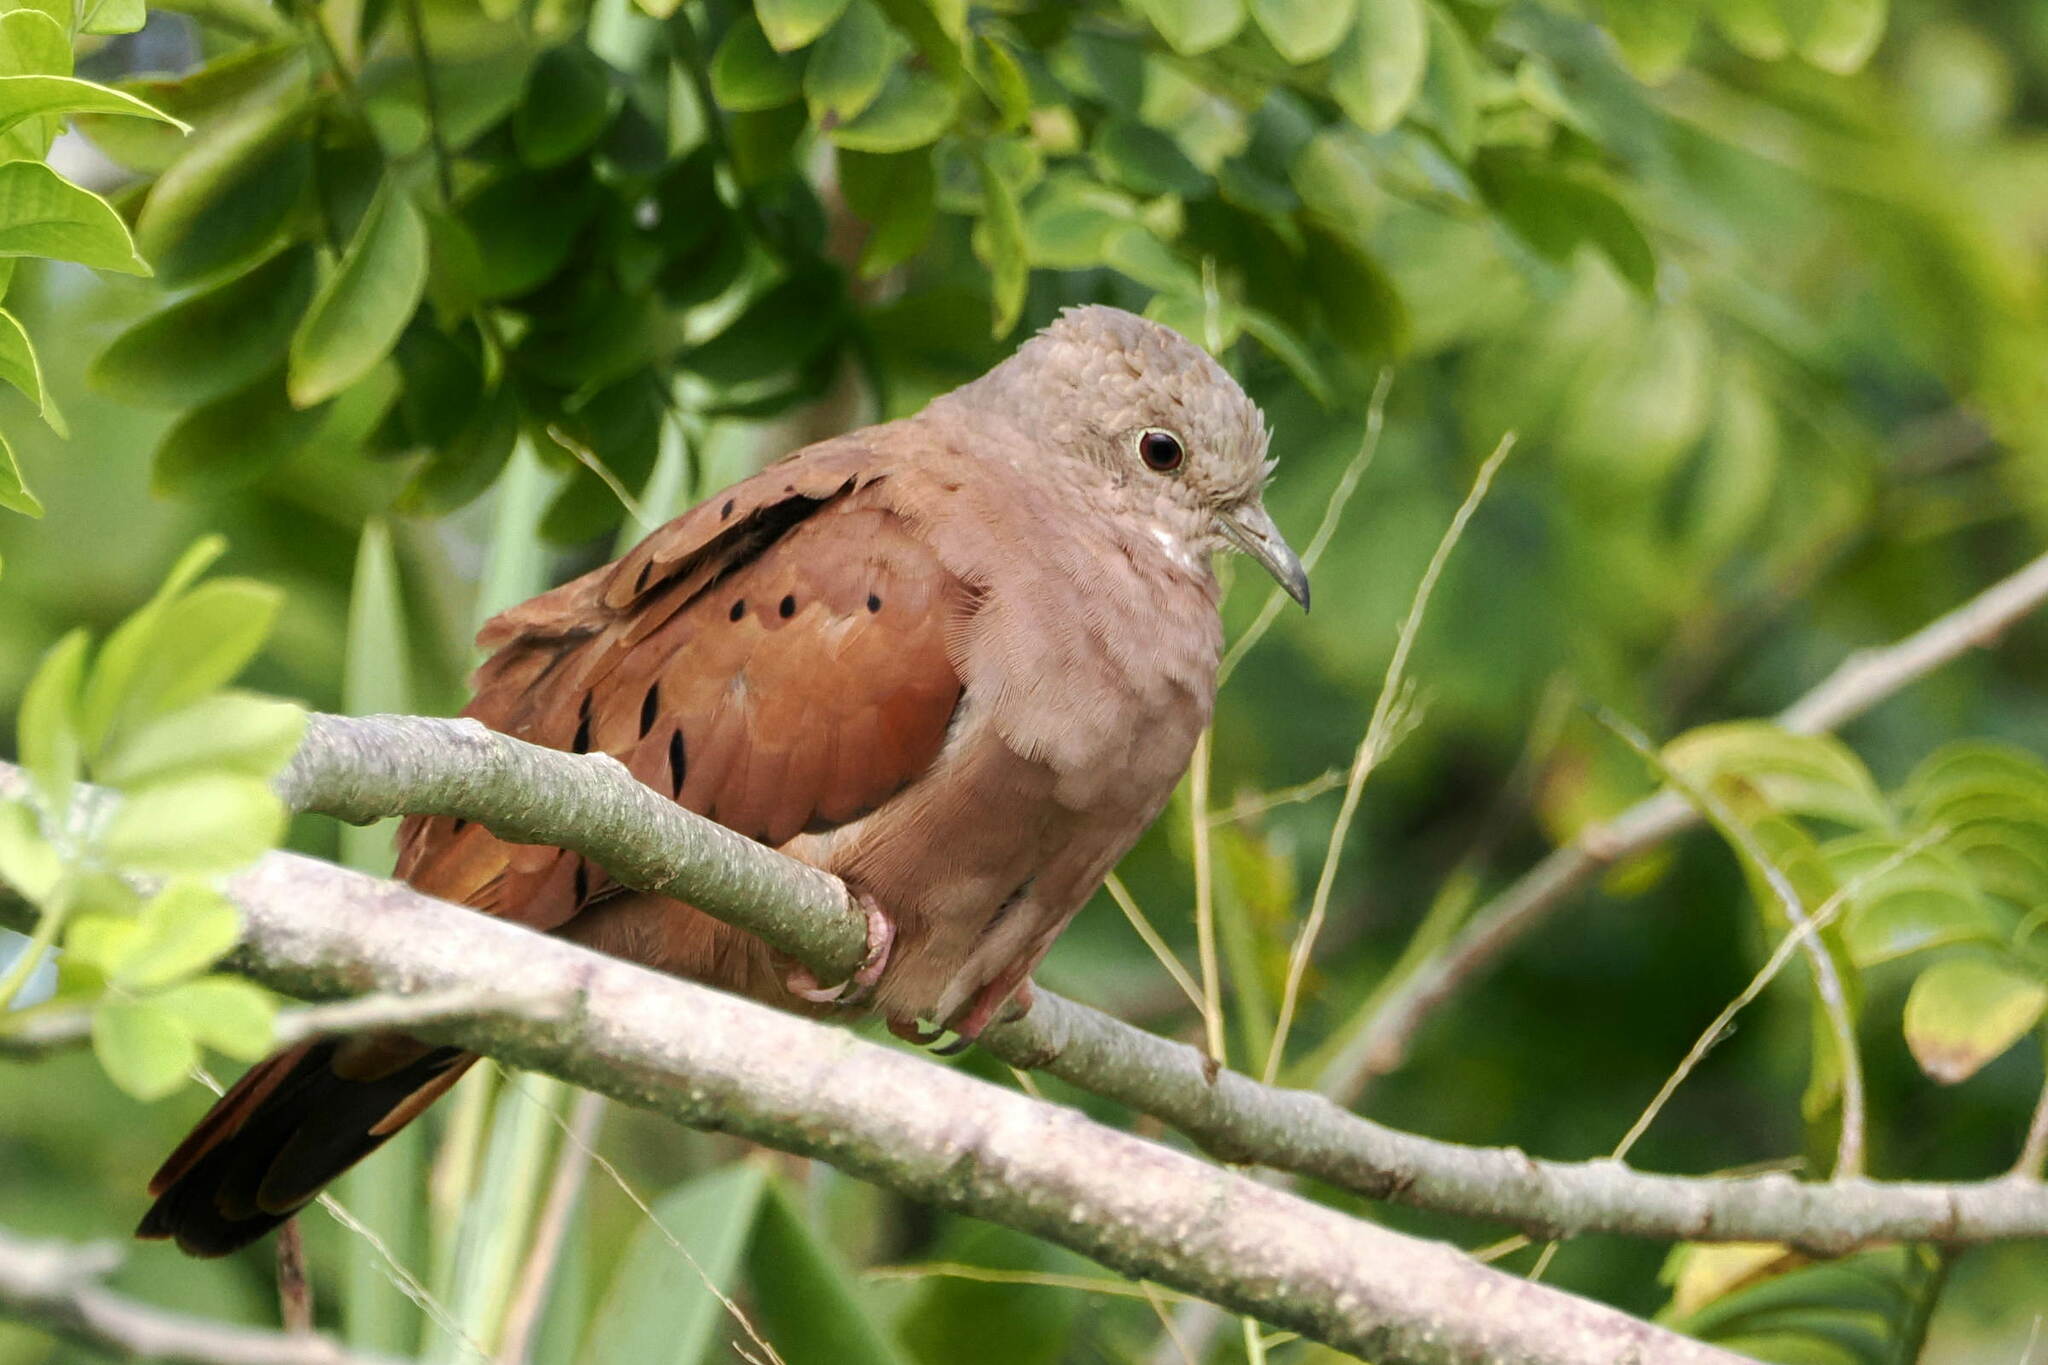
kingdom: Animalia
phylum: Chordata
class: Aves
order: Columbiformes
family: Columbidae
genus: Columbina
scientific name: Columbina talpacoti
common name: Ruddy ground dove
